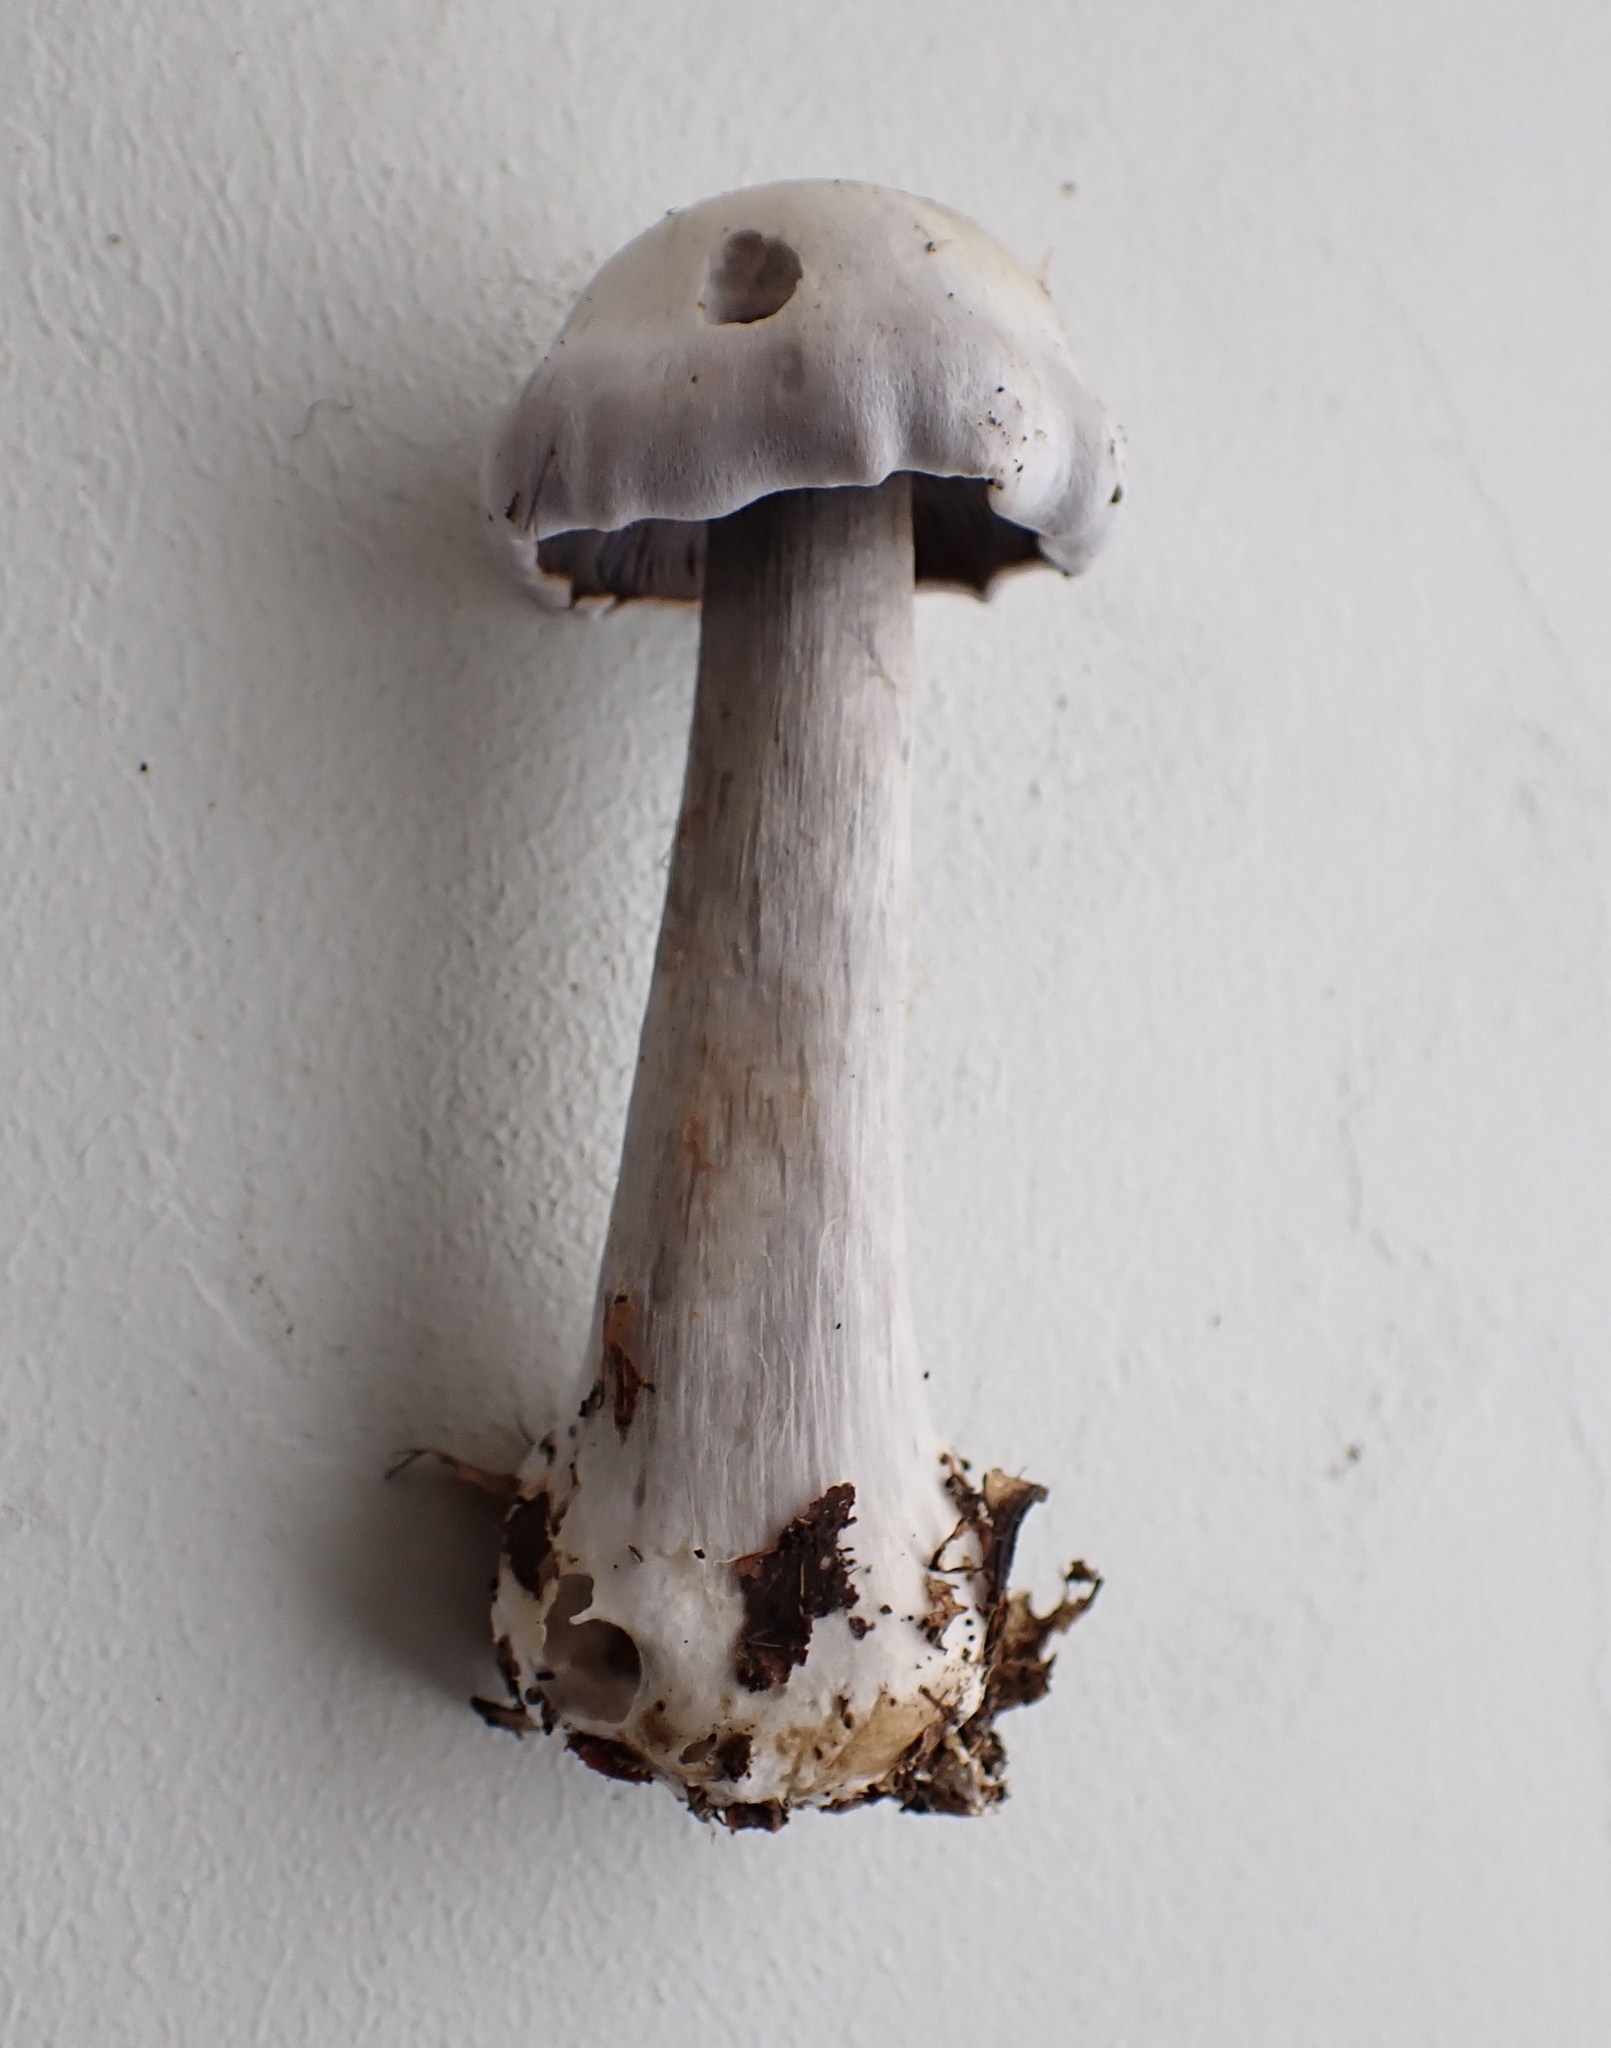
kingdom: Fungi
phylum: Basidiomycota
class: Agaricomycetes
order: Agaricales
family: Cortinariaceae
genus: Cortinarius
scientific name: Cortinarius obliquus
